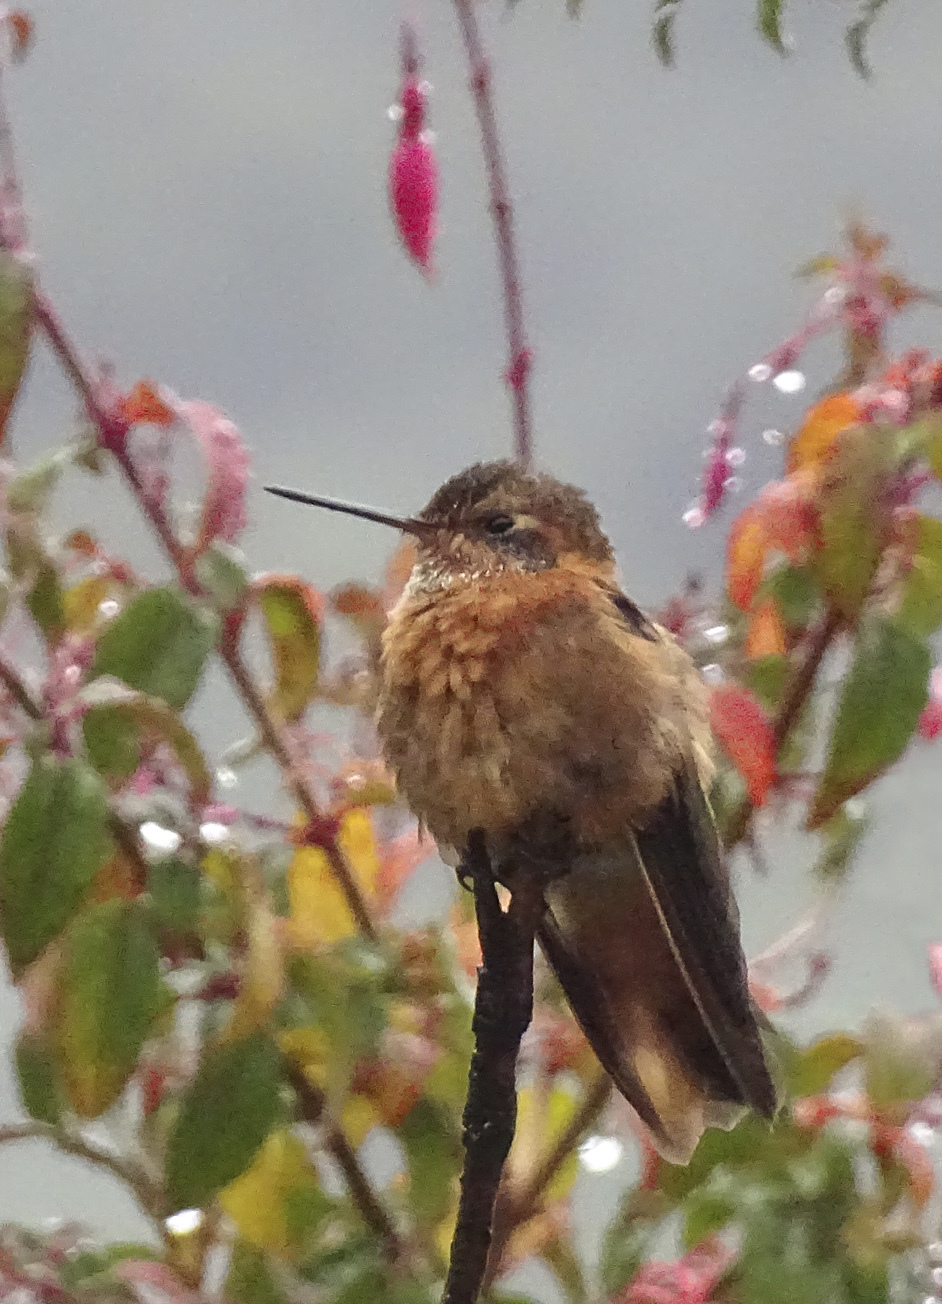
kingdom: Animalia
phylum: Chordata
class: Aves
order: Apodiformes
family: Trochilidae
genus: Aglaeactis
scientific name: Aglaeactis cupripennis
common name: Shining sunbeam
